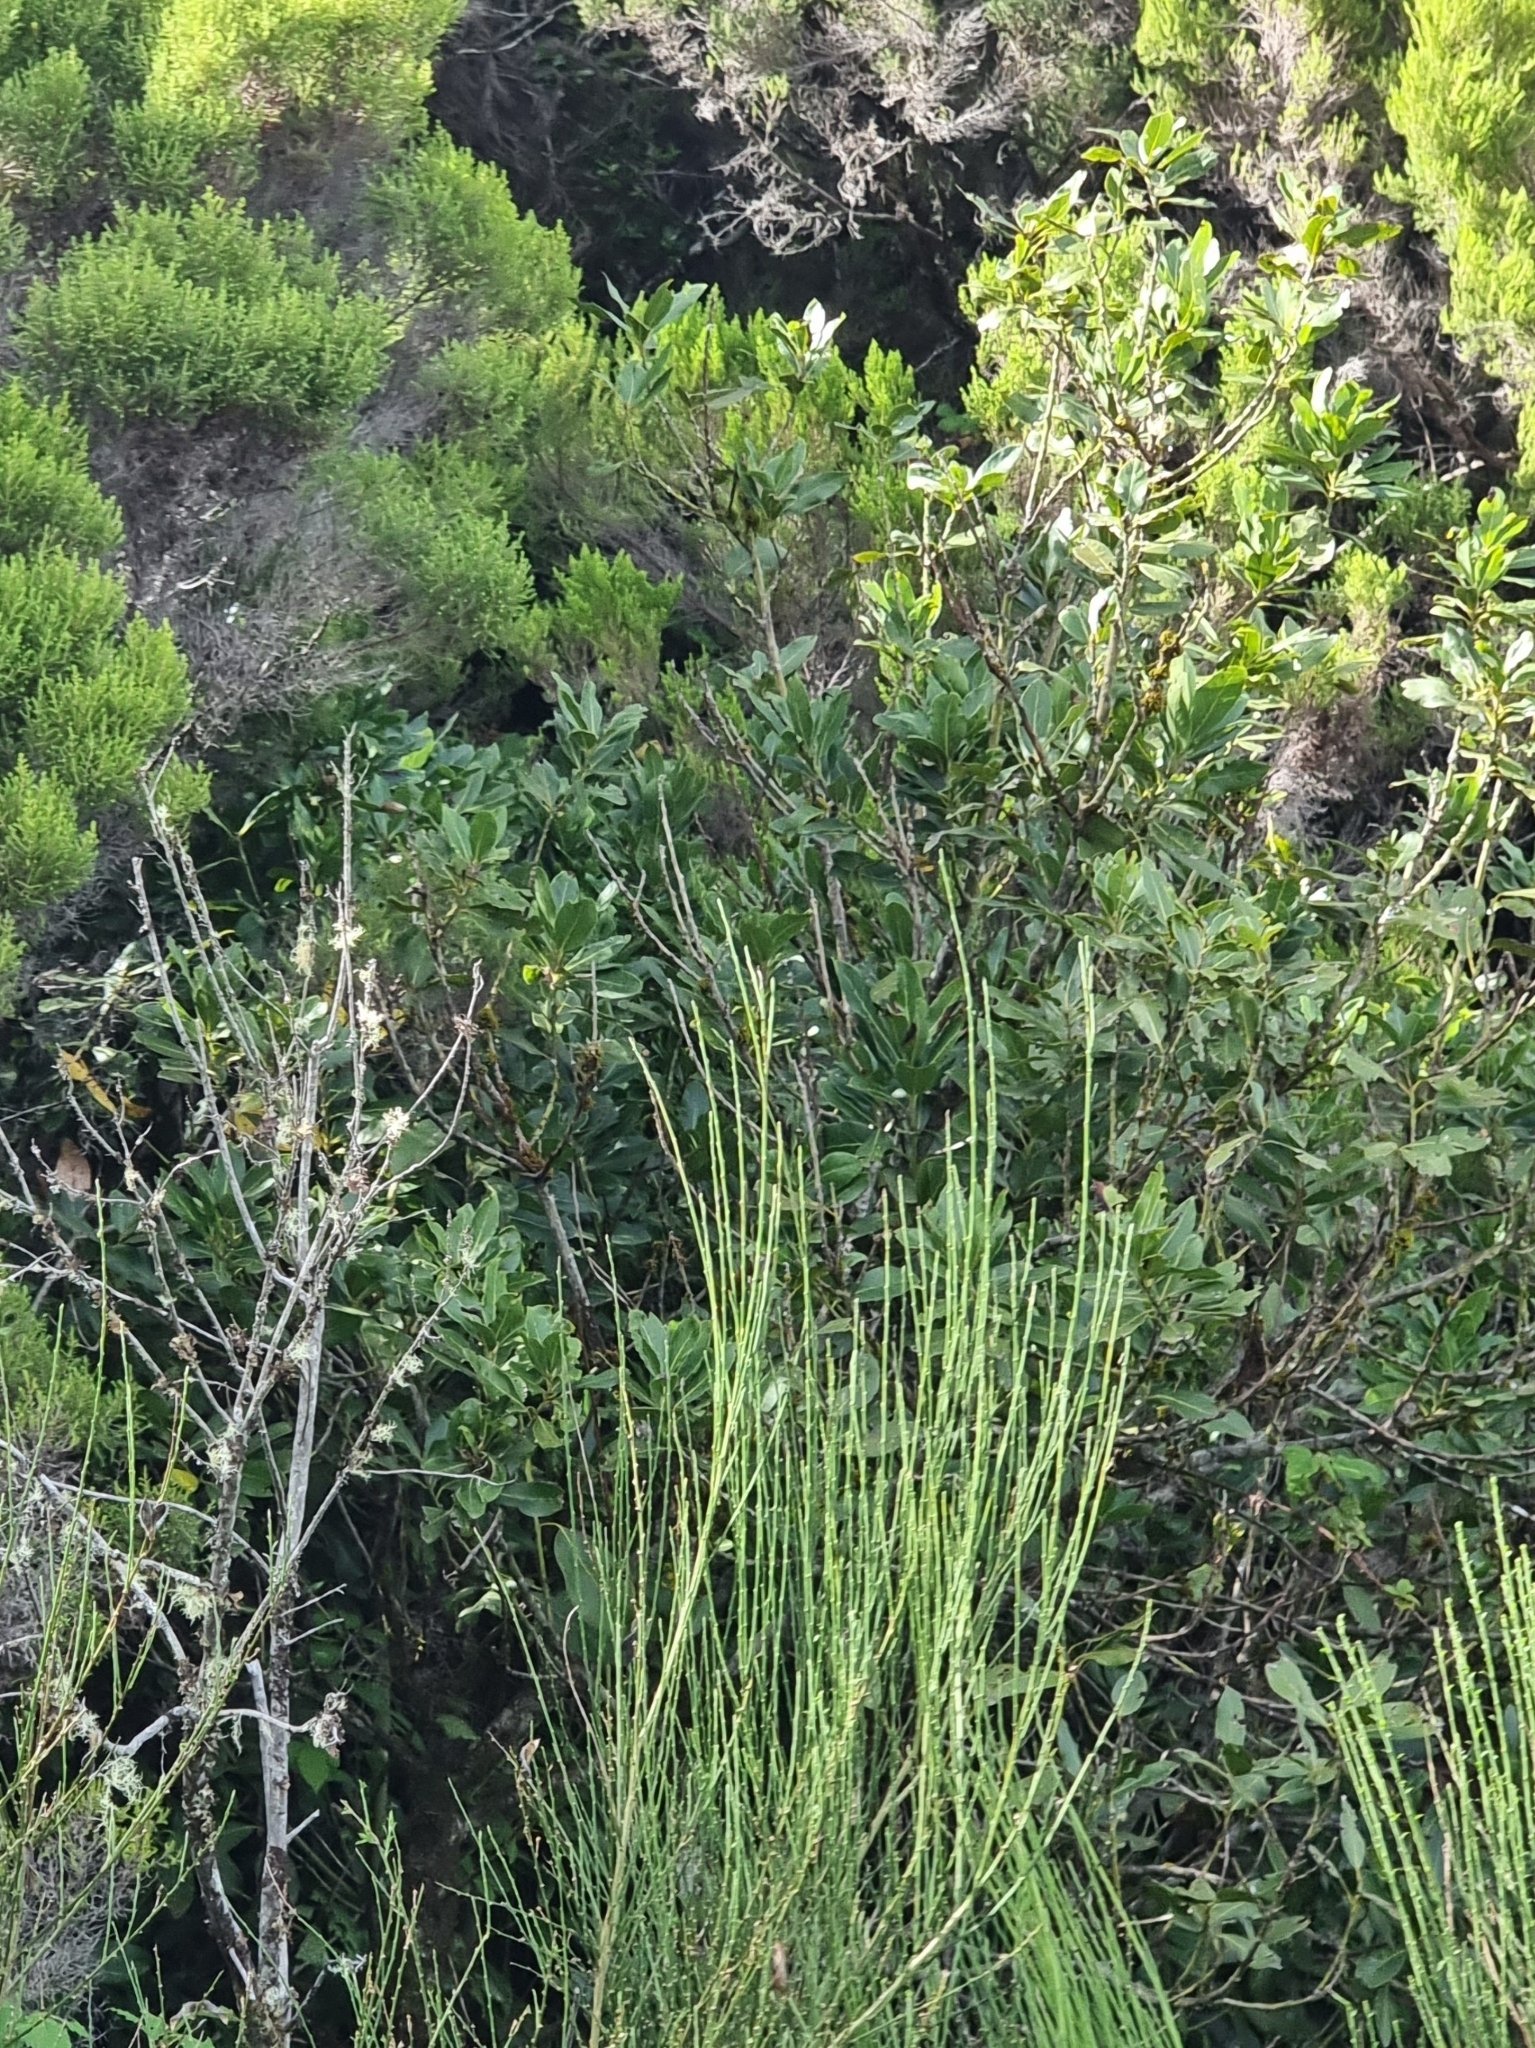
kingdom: Plantae
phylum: Tracheophyta
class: Magnoliopsida
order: Laurales
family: Lauraceae
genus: Laurus
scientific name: Laurus novocanariensis
